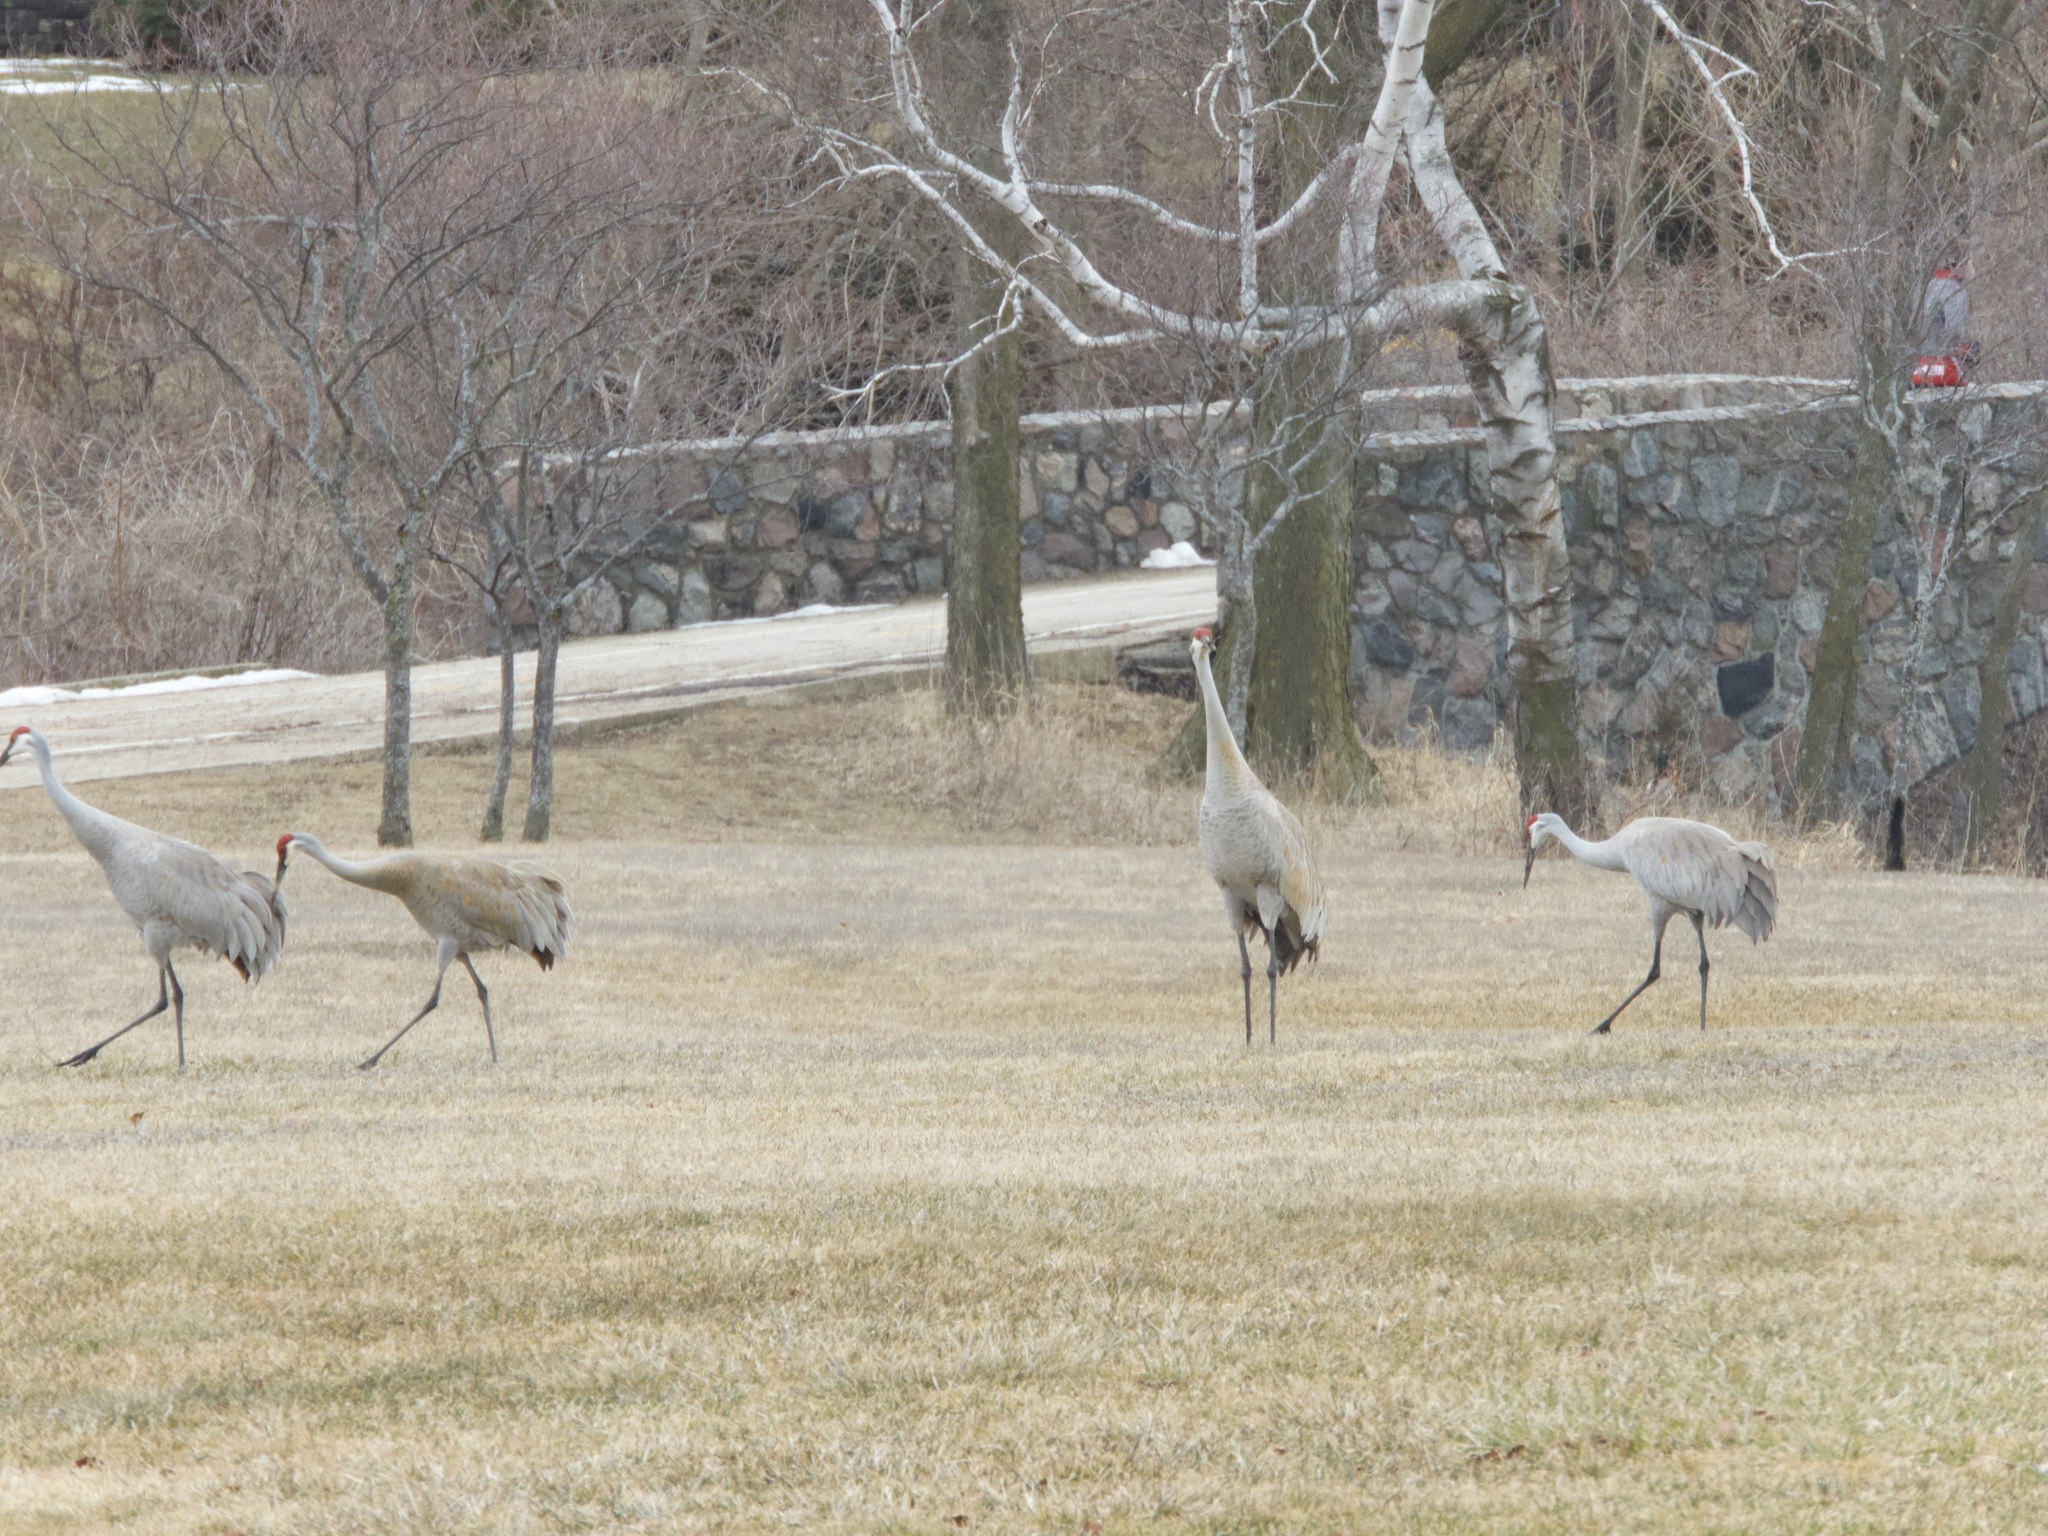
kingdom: Animalia
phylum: Chordata
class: Aves
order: Gruiformes
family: Gruidae
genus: Grus
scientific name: Grus canadensis
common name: Sandhill crane
